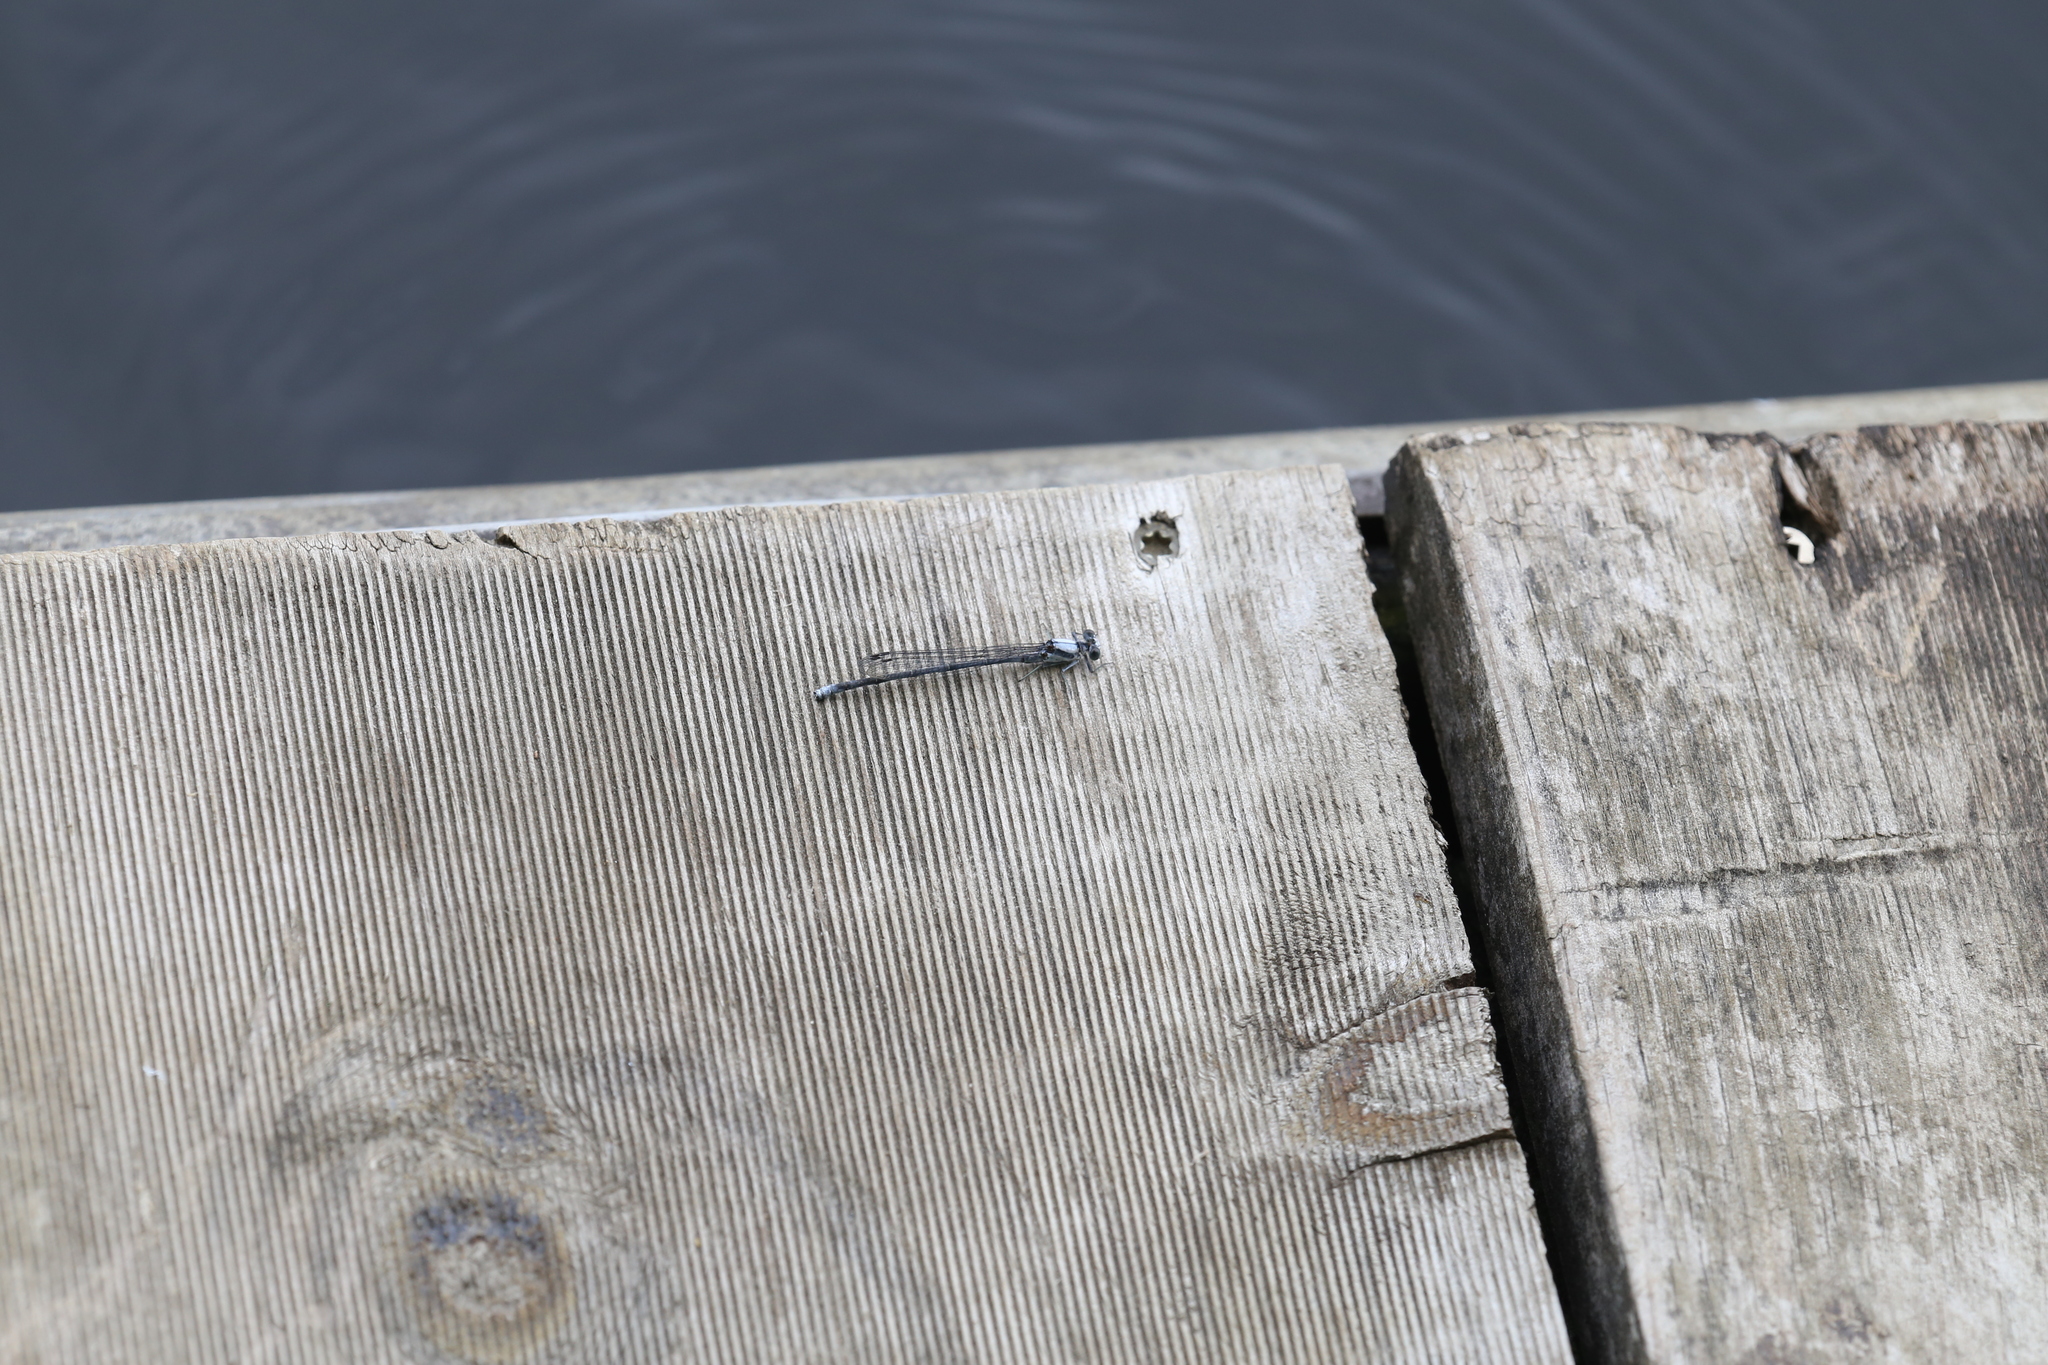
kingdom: Animalia
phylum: Arthropoda
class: Insecta
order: Odonata
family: Coenagrionidae
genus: Argia
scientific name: Argia moesta
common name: Powdered dancer
